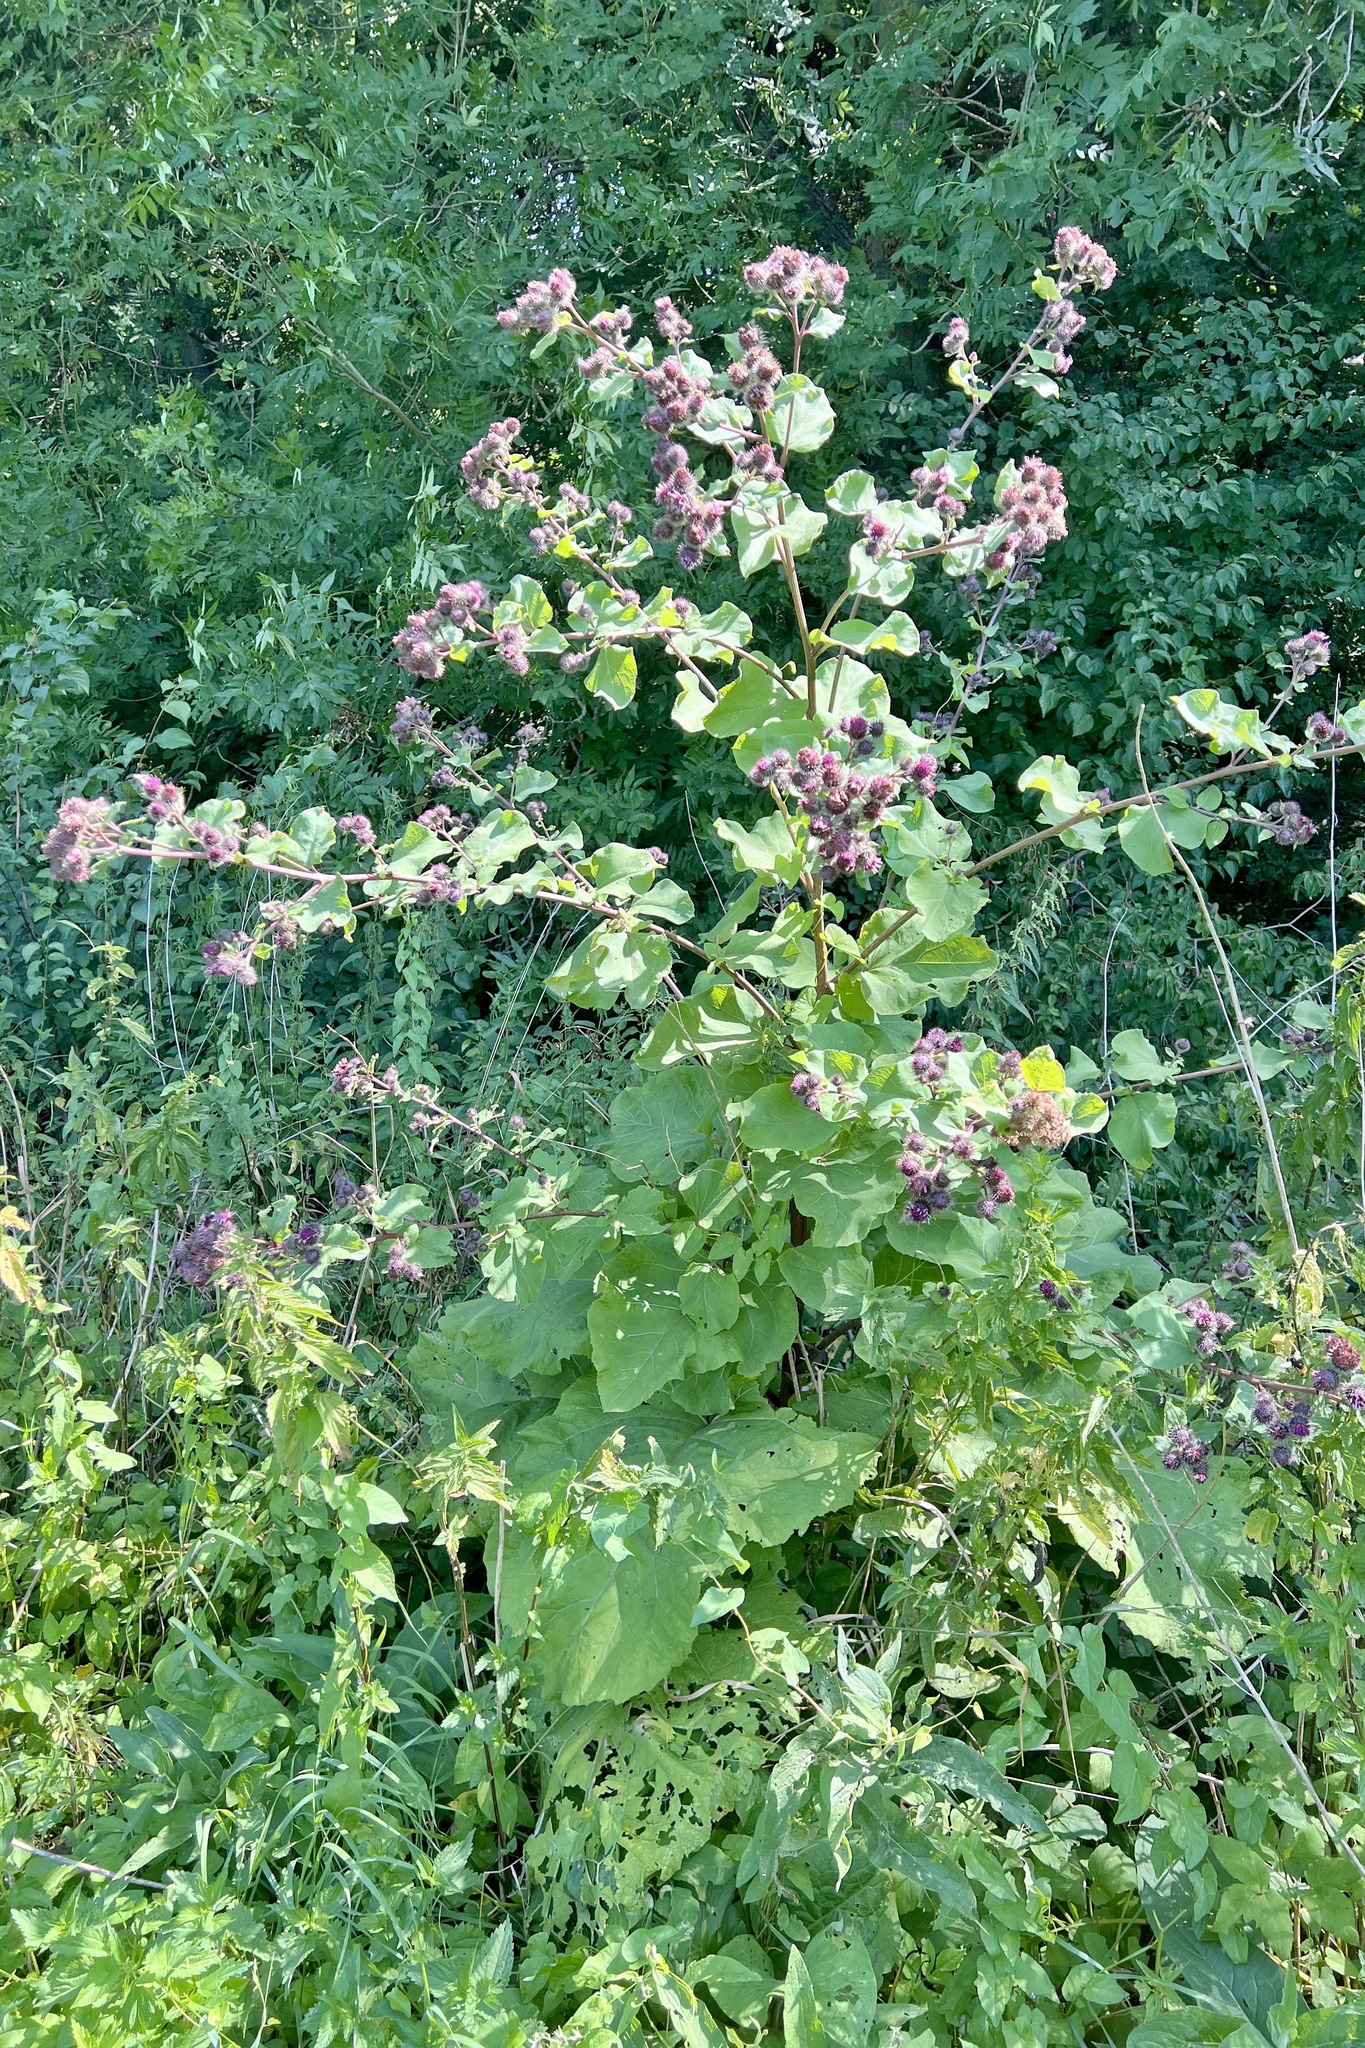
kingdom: Plantae
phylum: Tracheophyta
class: Magnoliopsida
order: Asterales
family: Asteraceae
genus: Arctium
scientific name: Arctium tomentosum
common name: Woolly burdock
